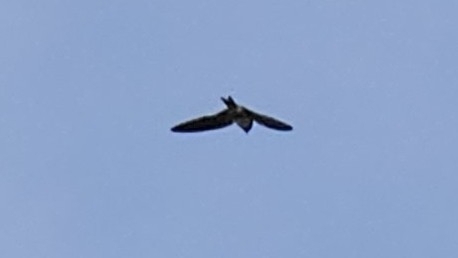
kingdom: Animalia
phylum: Chordata
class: Aves
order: Passeriformes
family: Hirundinidae
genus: Hirundo
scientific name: Hirundo rustica
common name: Barn swallow
